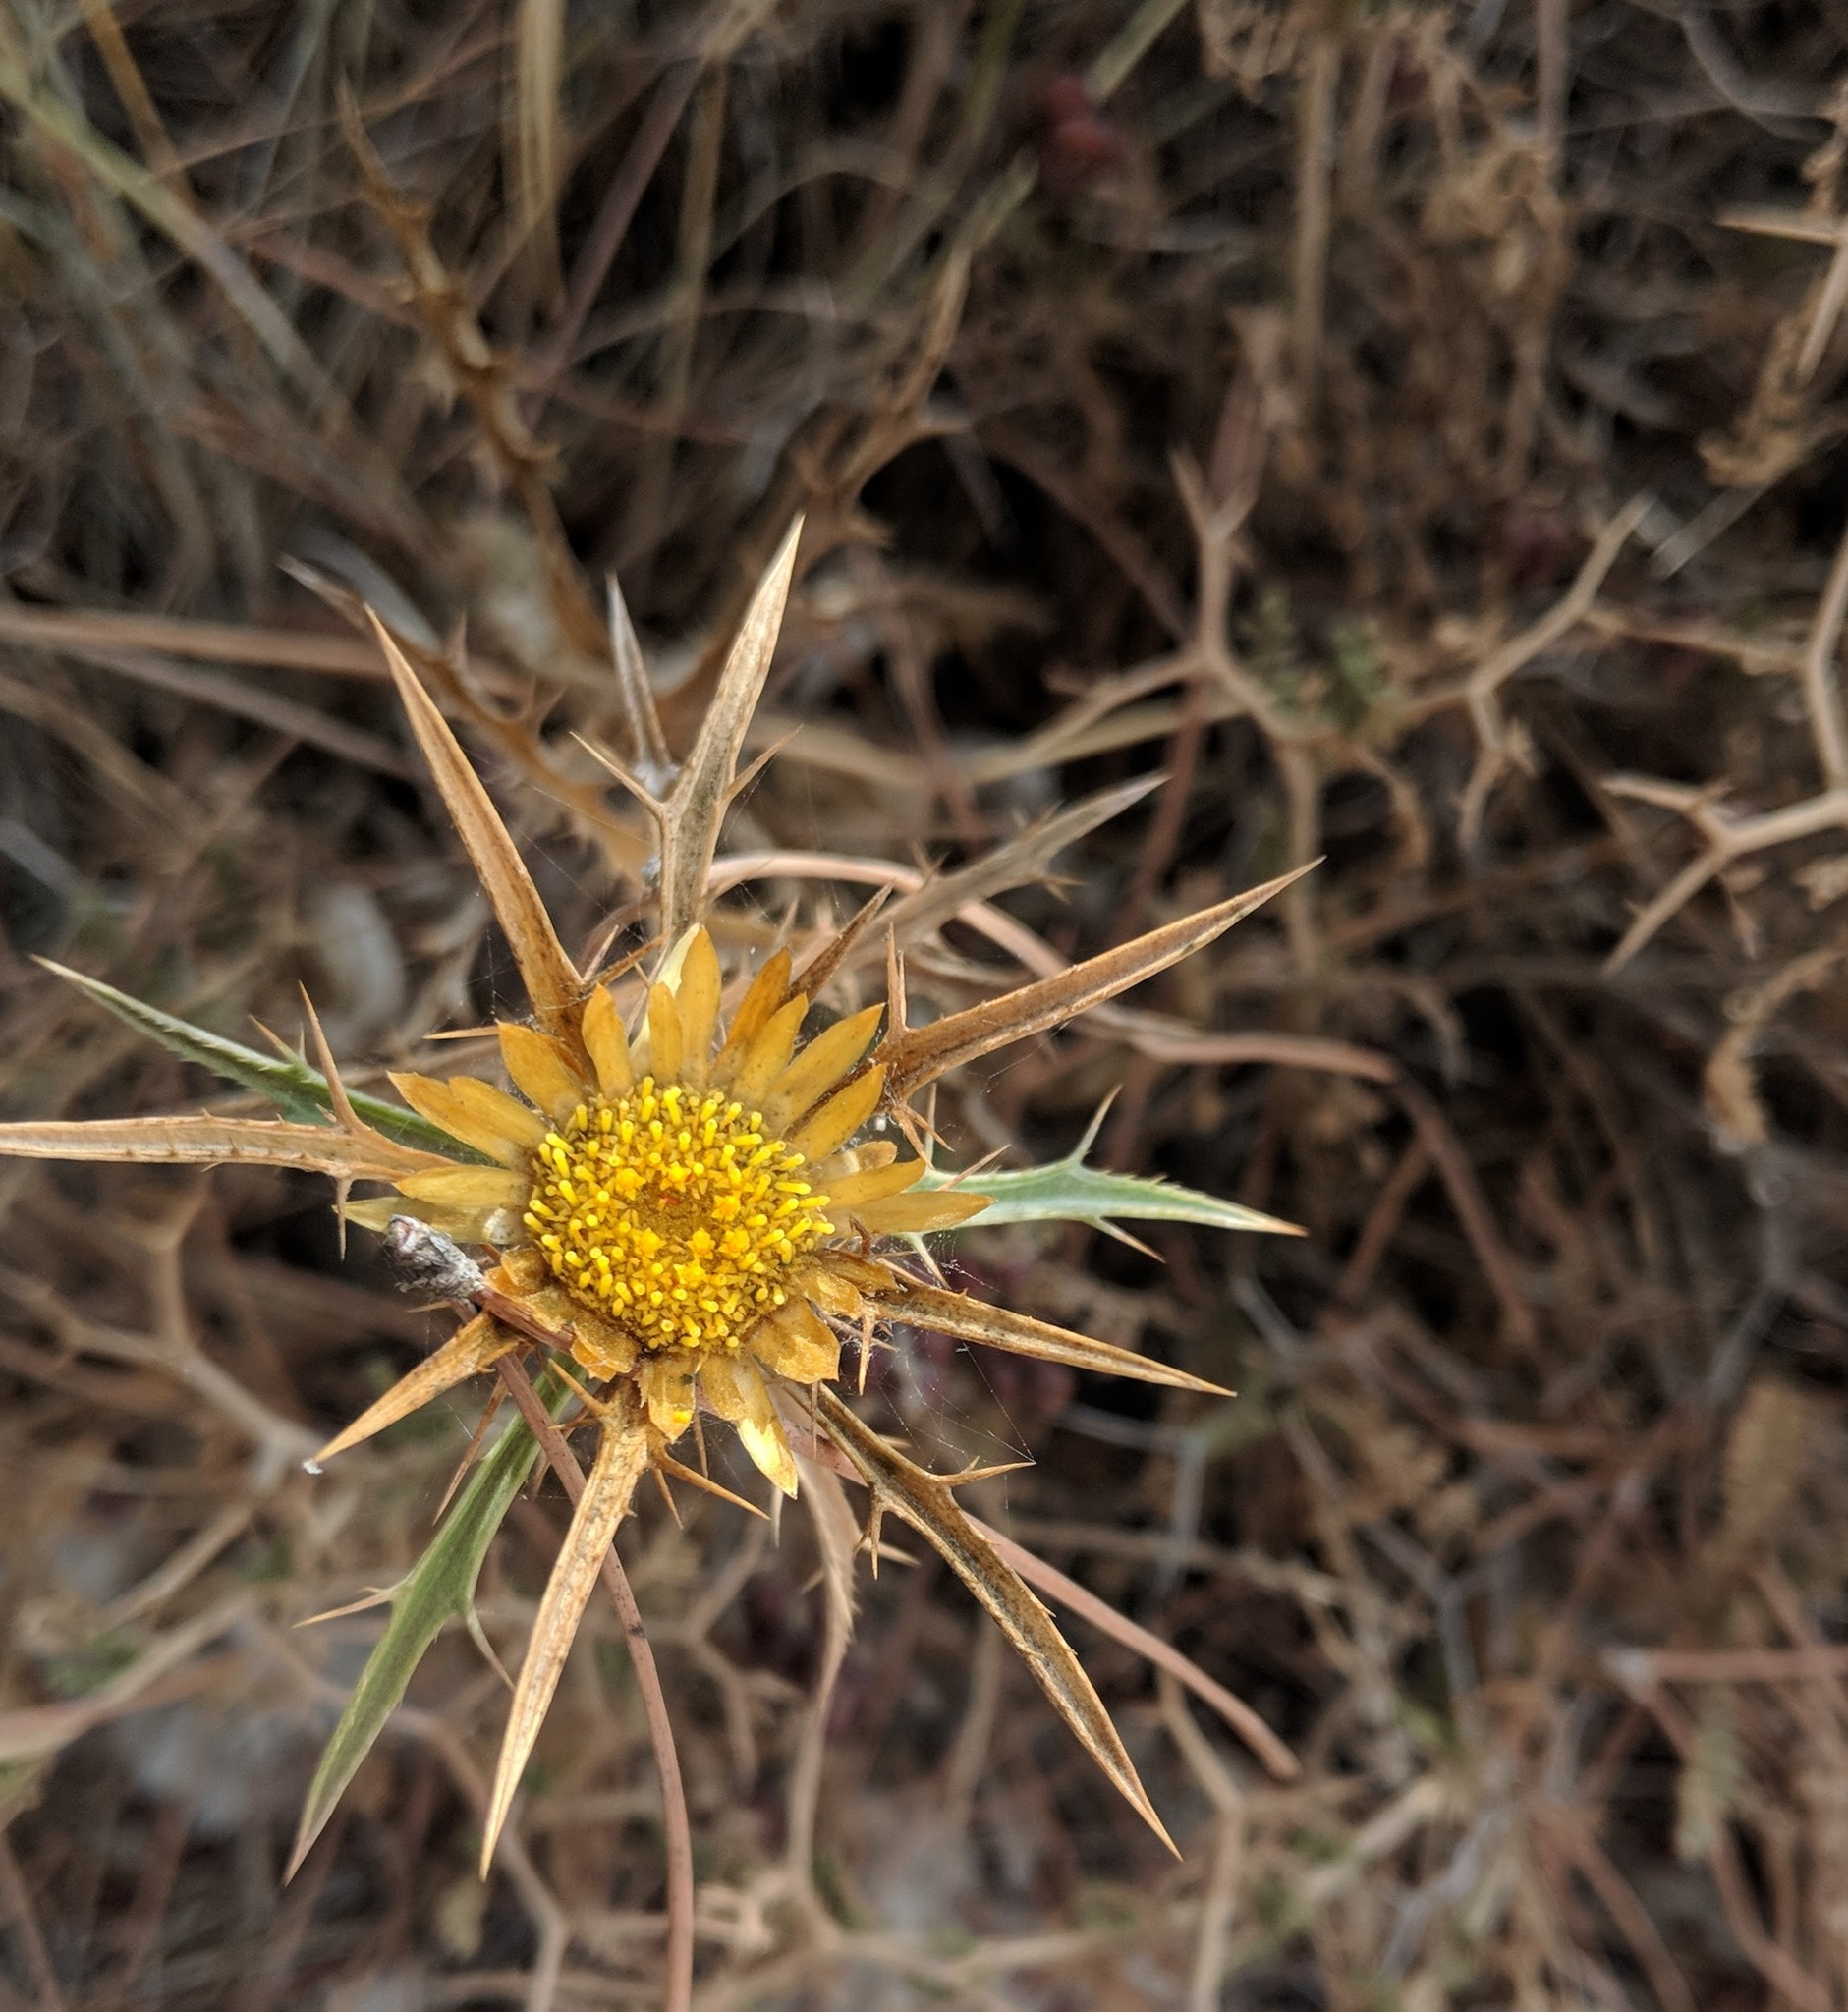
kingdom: Plantae
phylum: Tracheophyta
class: Magnoliopsida
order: Asterales
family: Asteraceae
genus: Carlina
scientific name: Carlina curetum
